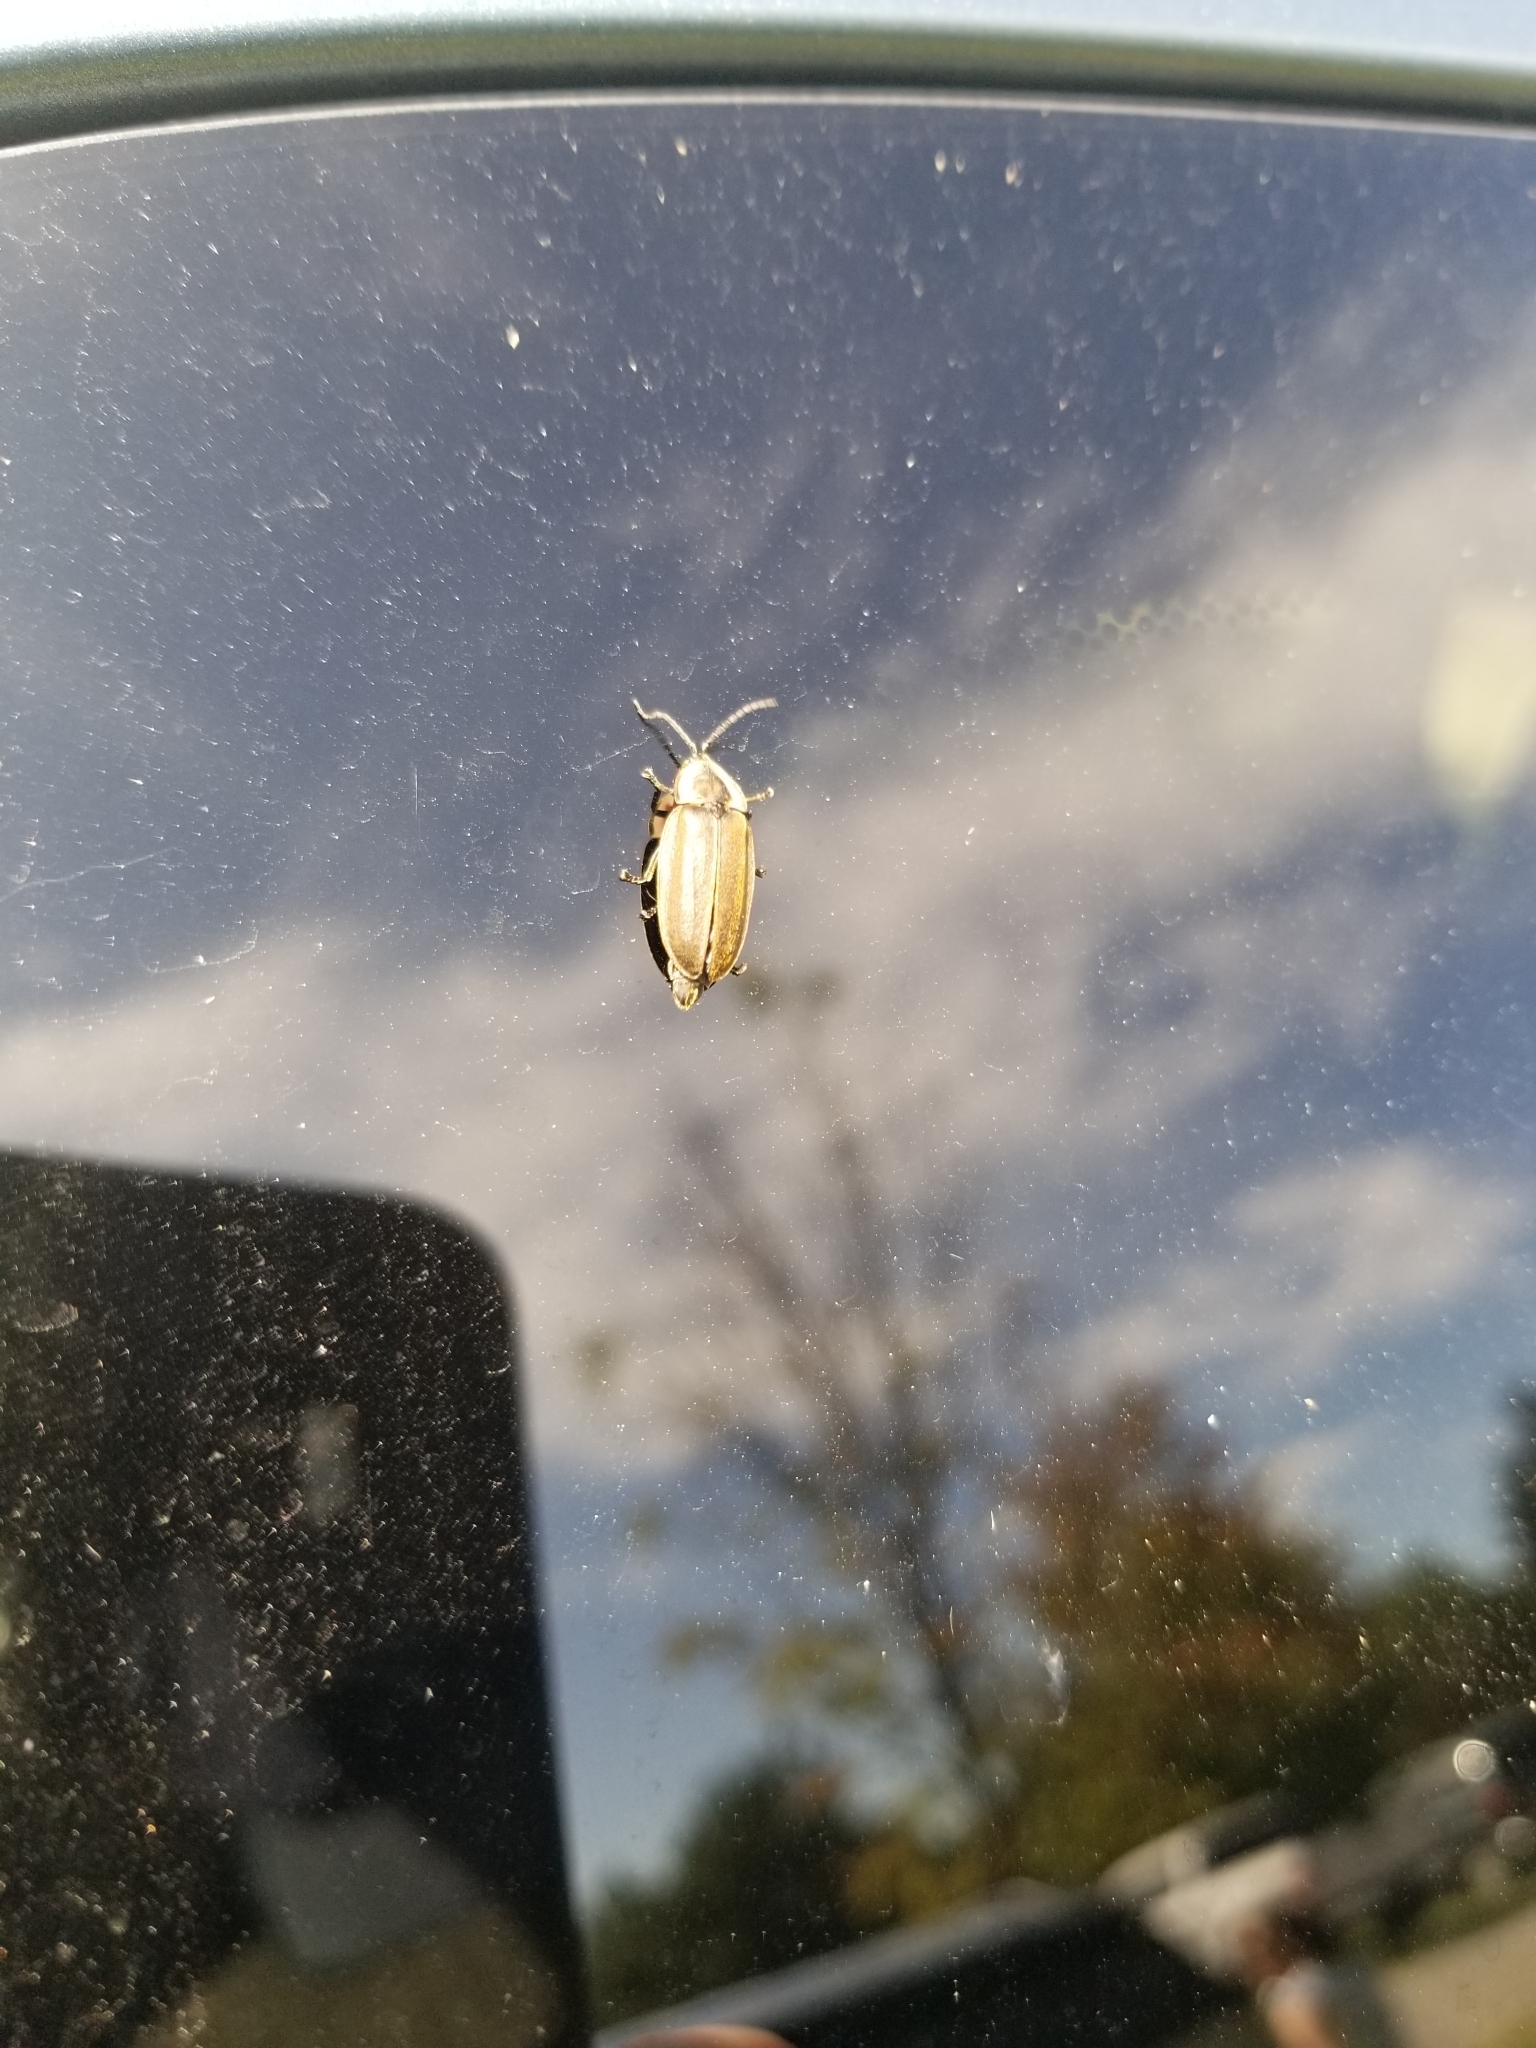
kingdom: Animalia
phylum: Arthropoda
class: Insecta
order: Coleoptera
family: Lampyridae
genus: Photinus
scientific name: Photinus corrusca
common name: Winter firefly
